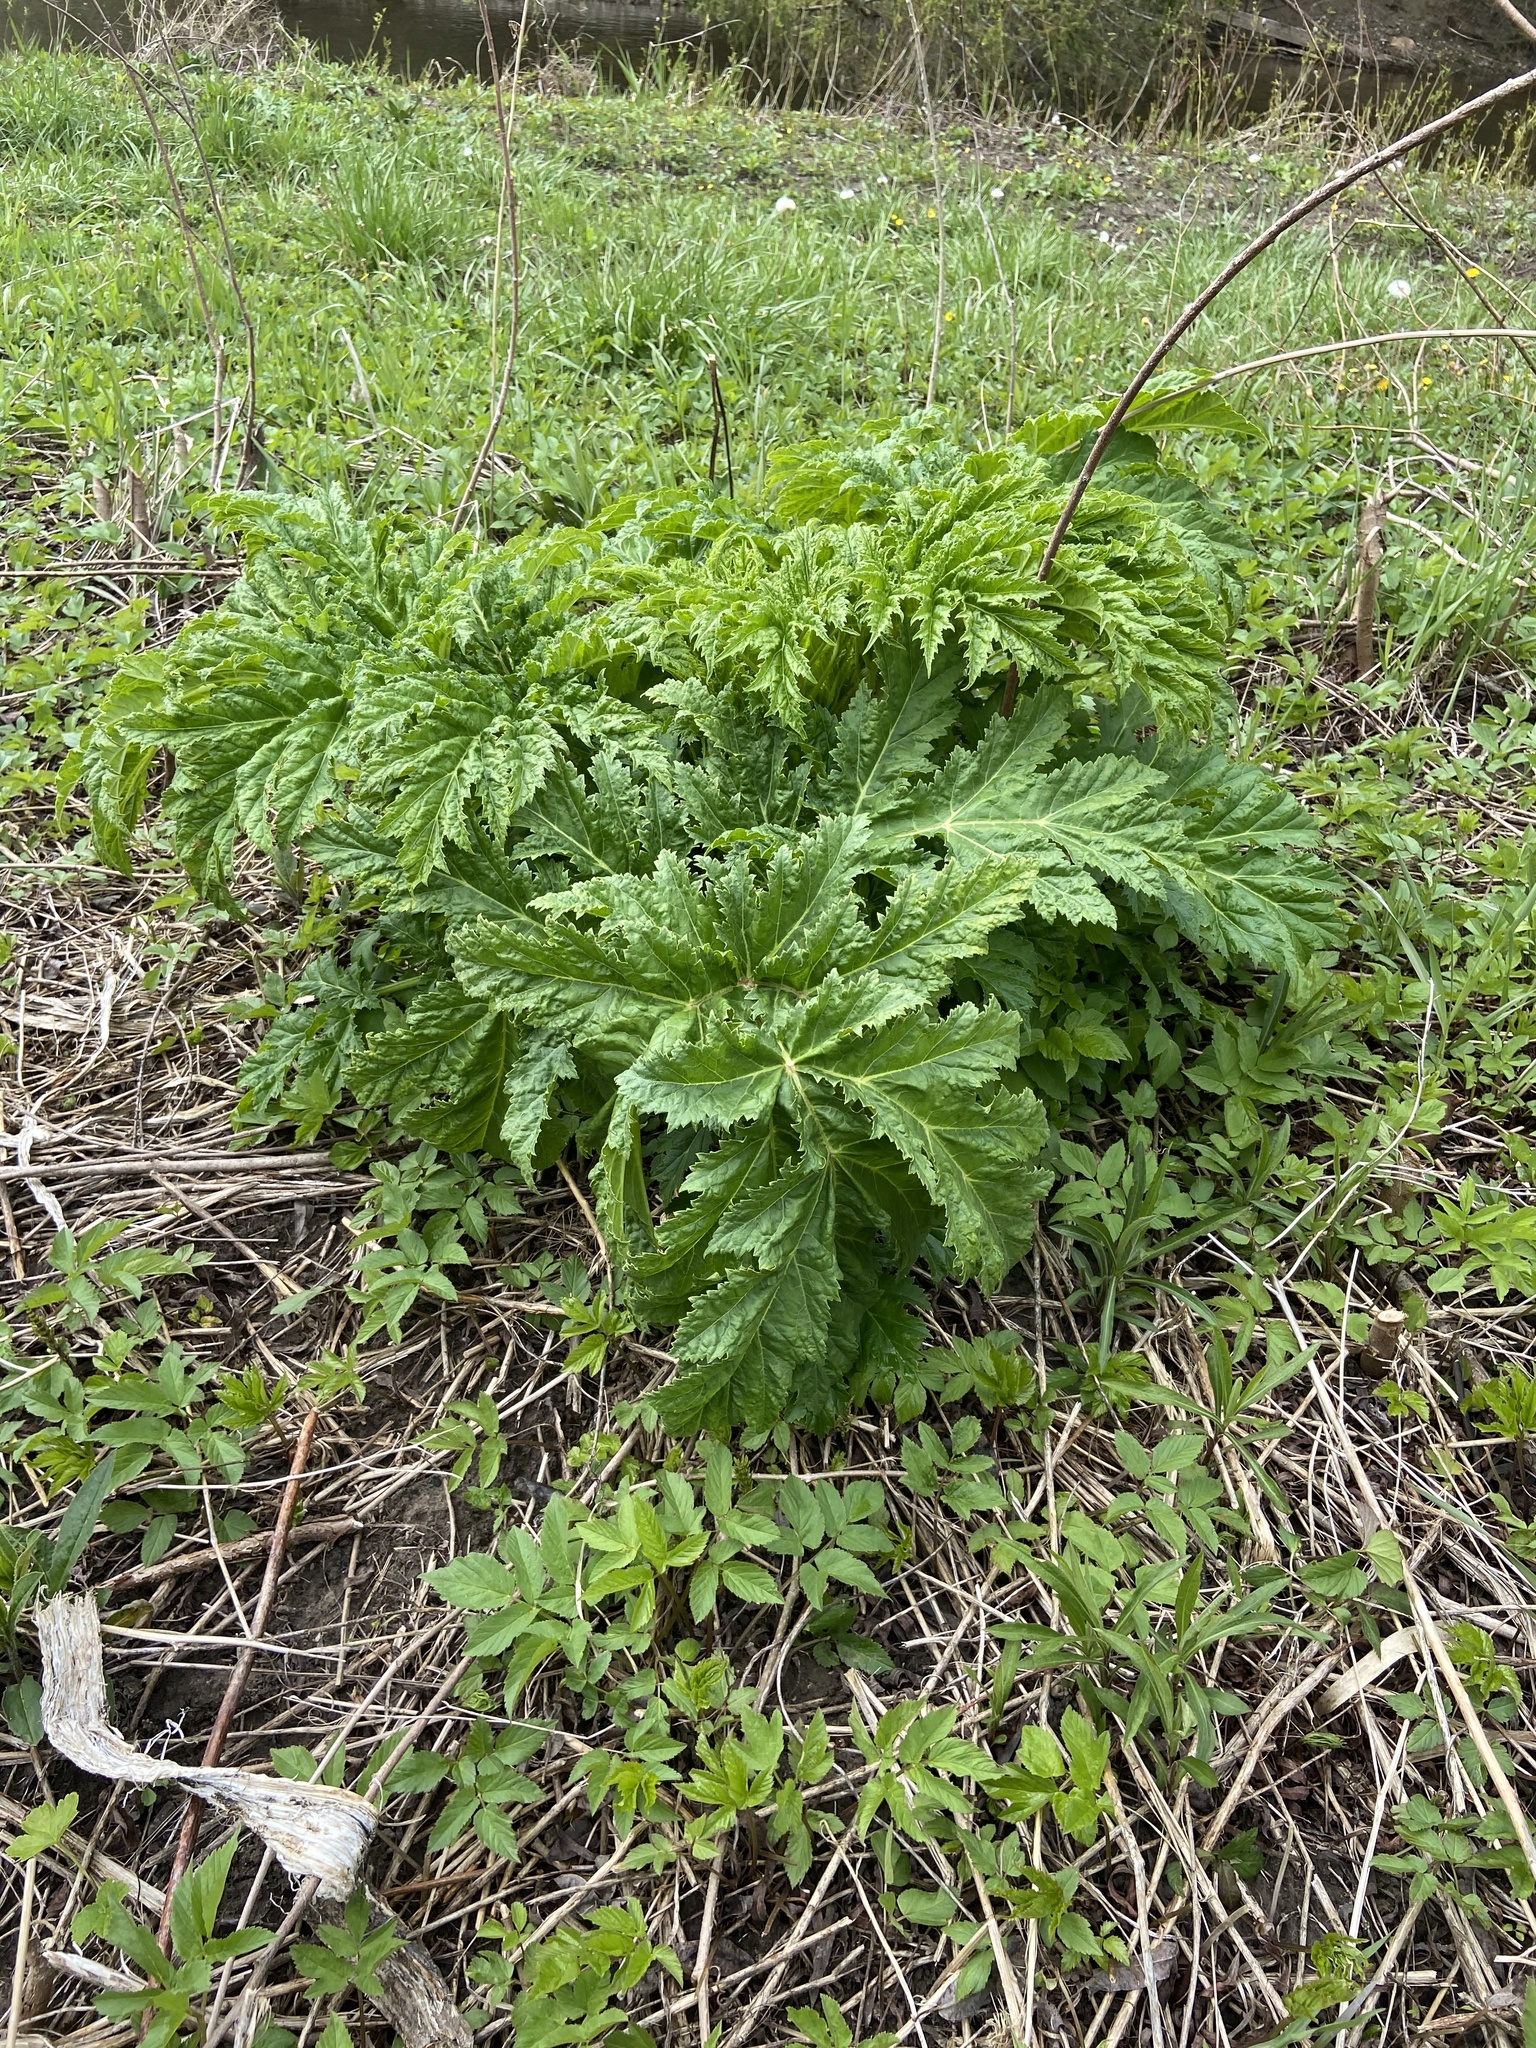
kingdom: Plantae
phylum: Tracheophyta
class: Magnoliopsida
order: Apiales
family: Apiaceae
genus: Heracleum
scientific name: Heracleum mantegazzianum
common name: Giant hogweed
